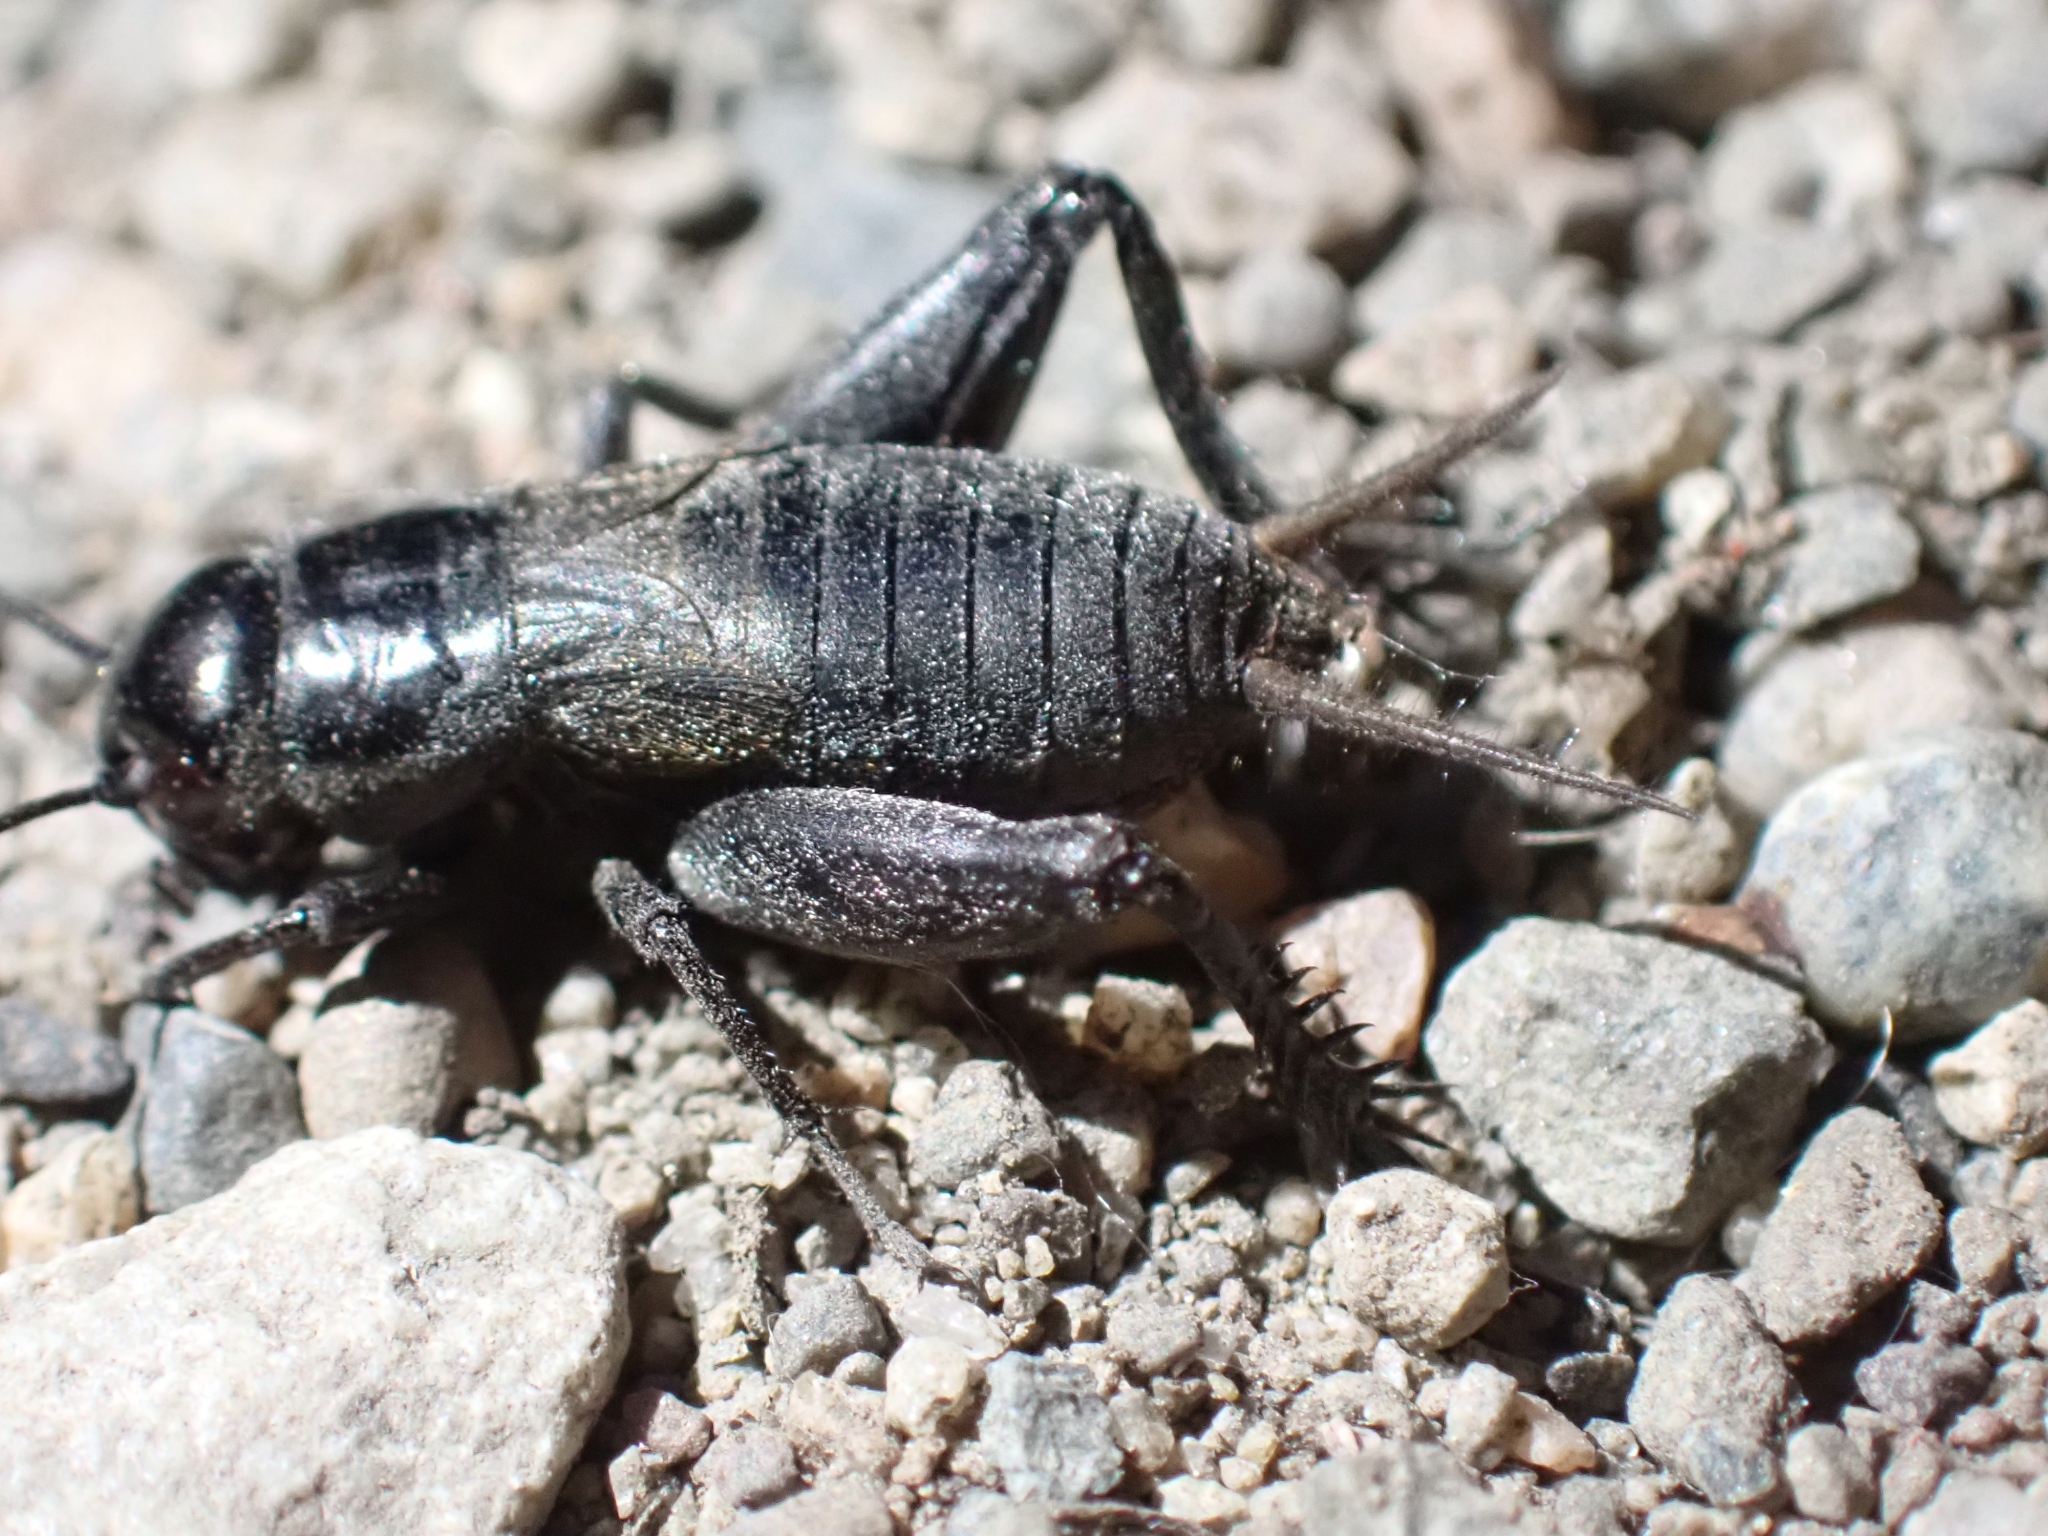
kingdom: Animalia
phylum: Arthropoda
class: Insecta
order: Orthoptera
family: Gryllidae
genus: Gryllus
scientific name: Gryllus pennsylvanicus
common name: Fall field cricket
